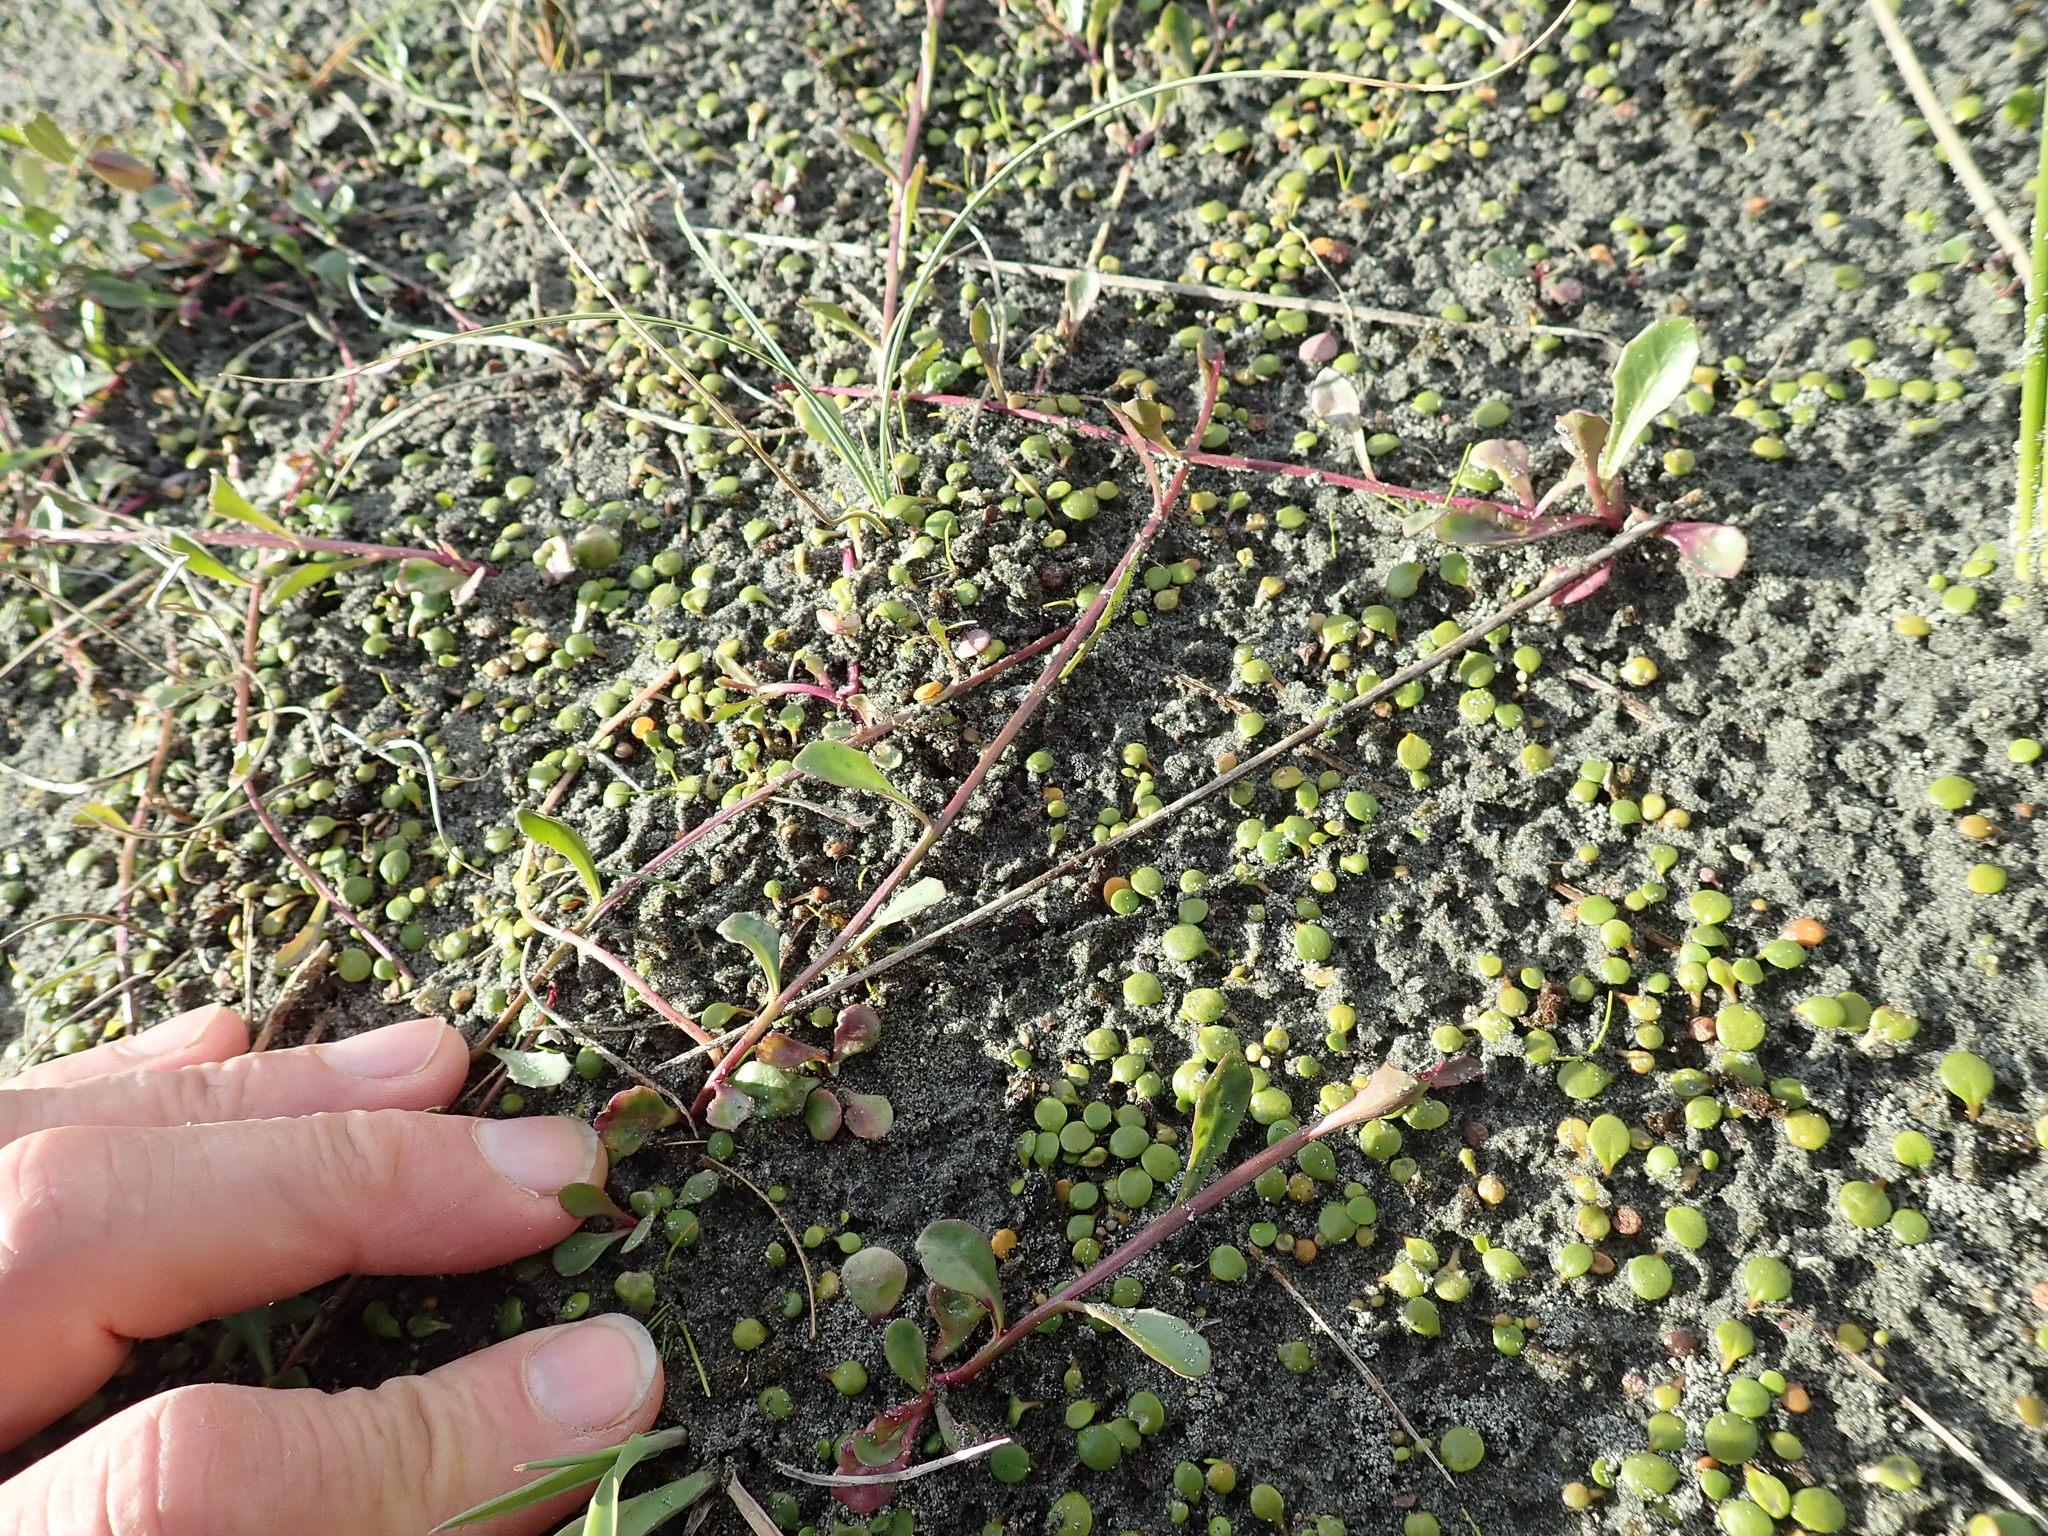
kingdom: Plantae
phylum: Tracheophyta
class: Magnoliopsida
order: Asterales
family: Campanulaceae
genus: Lobelia
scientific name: Lobelia anceps
